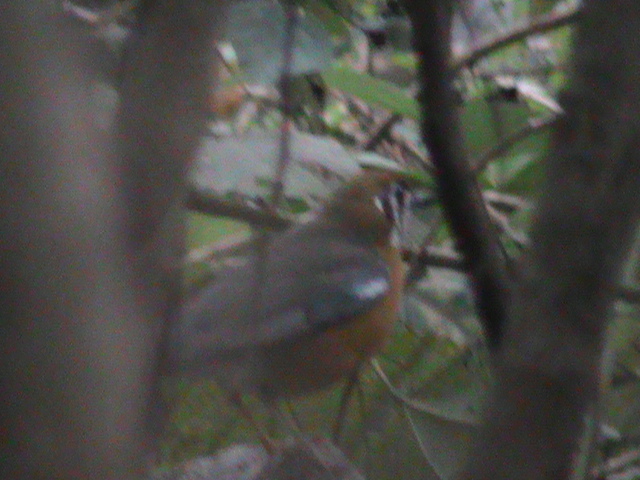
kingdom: Animalia
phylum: Chordata
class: Aves
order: Passeriformes
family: Turdidae
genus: Geokichla
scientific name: Geokichla citrina
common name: Orange-headed thrush
